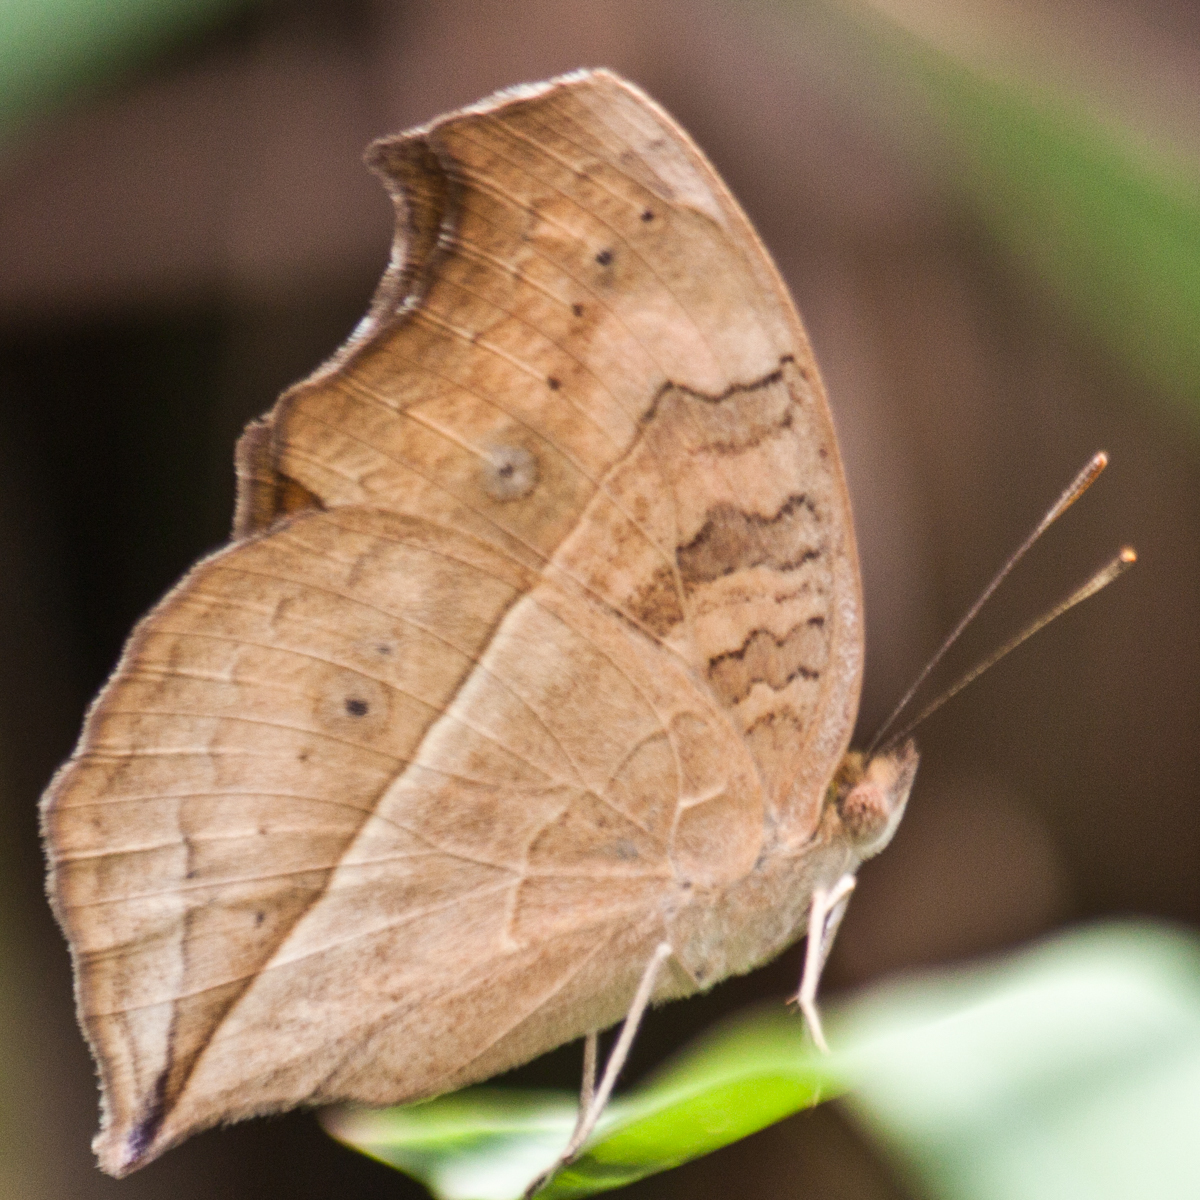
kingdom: Animalia
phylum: Arthropoda
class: Insecta
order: Lepidoptera
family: Nymphalidae
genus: Junonia
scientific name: Junonia almana
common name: Peacock pansy
